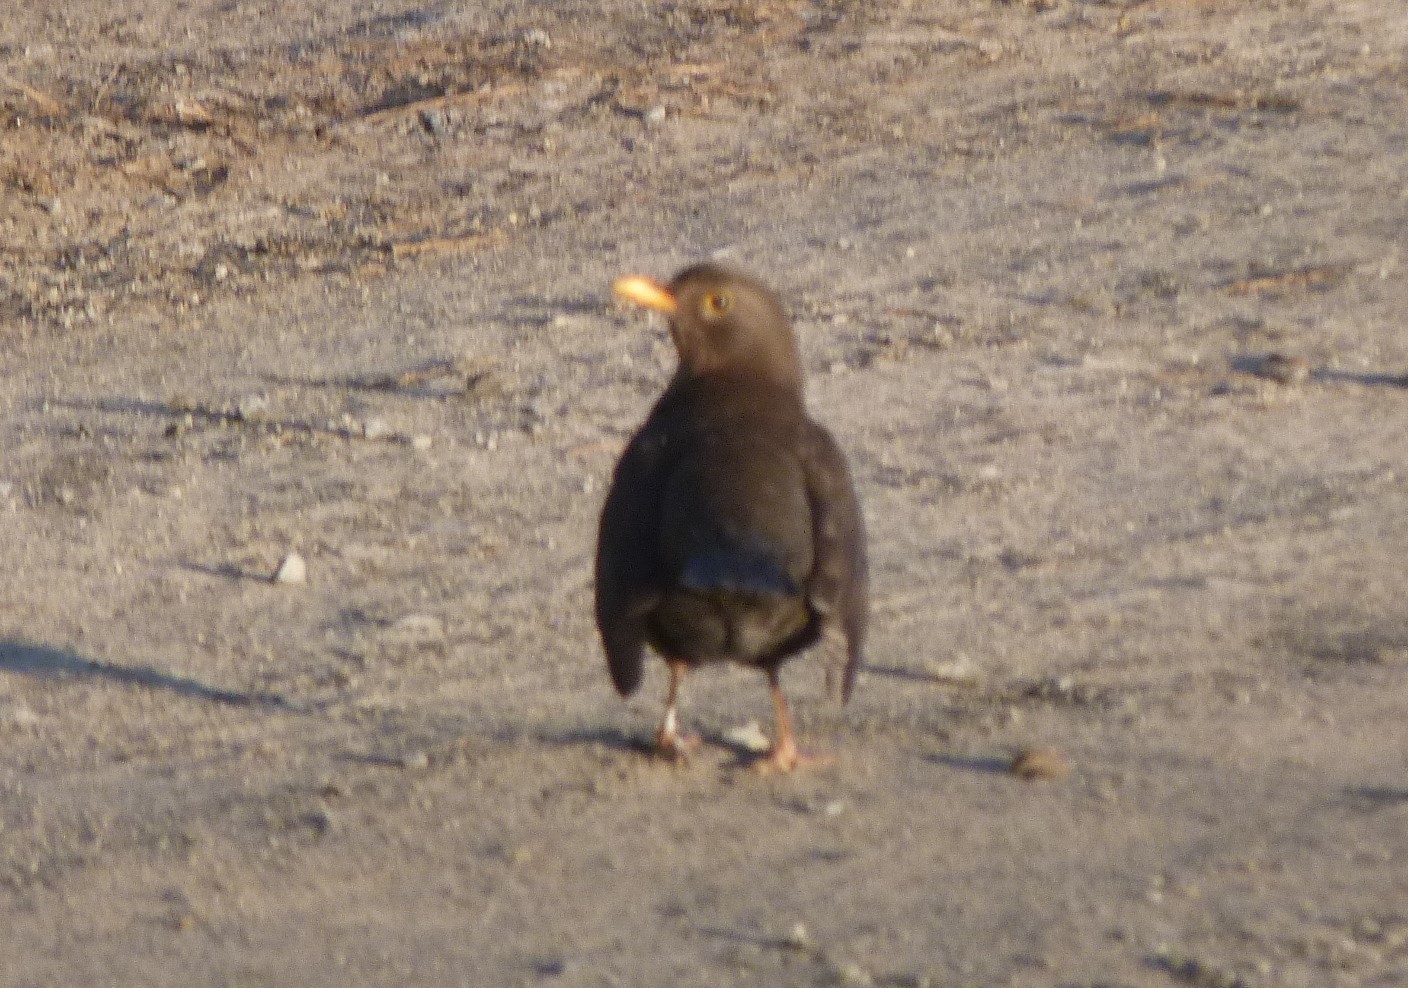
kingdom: Animalia
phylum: Chordata
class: Aves
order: Passeriformes
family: Turdidae
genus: Turdus
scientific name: Turdus merula
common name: Common blackbird
